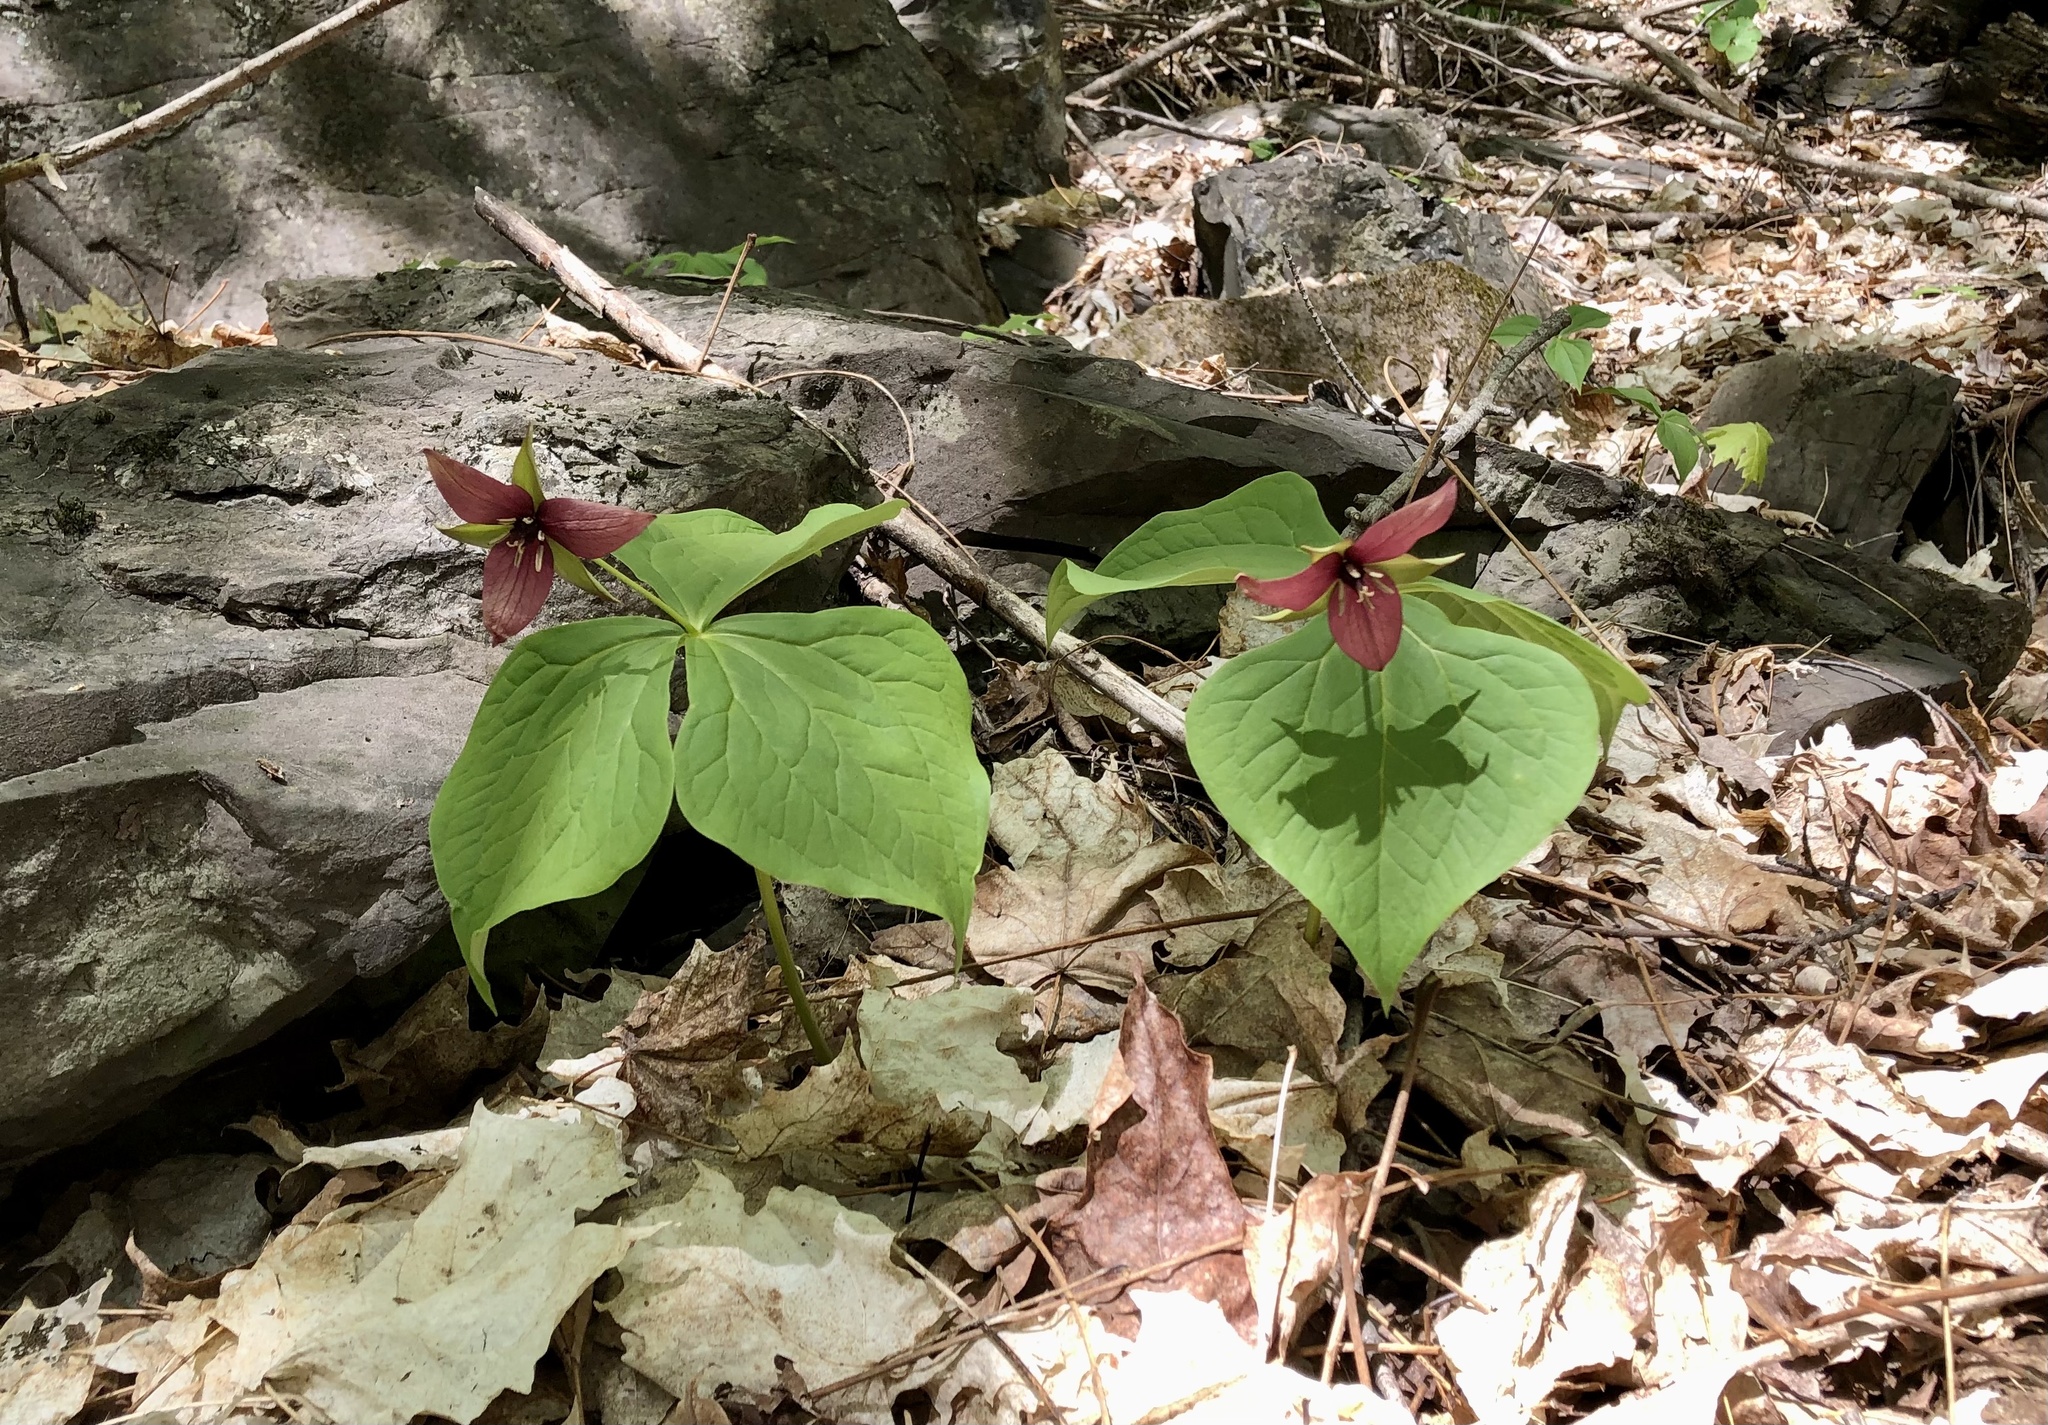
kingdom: Plantae
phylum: Tracheophyta
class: Liliopsida
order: Liliales
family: Melanthiaceae
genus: Trillium
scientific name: Trillium erectum
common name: Purple trillium
